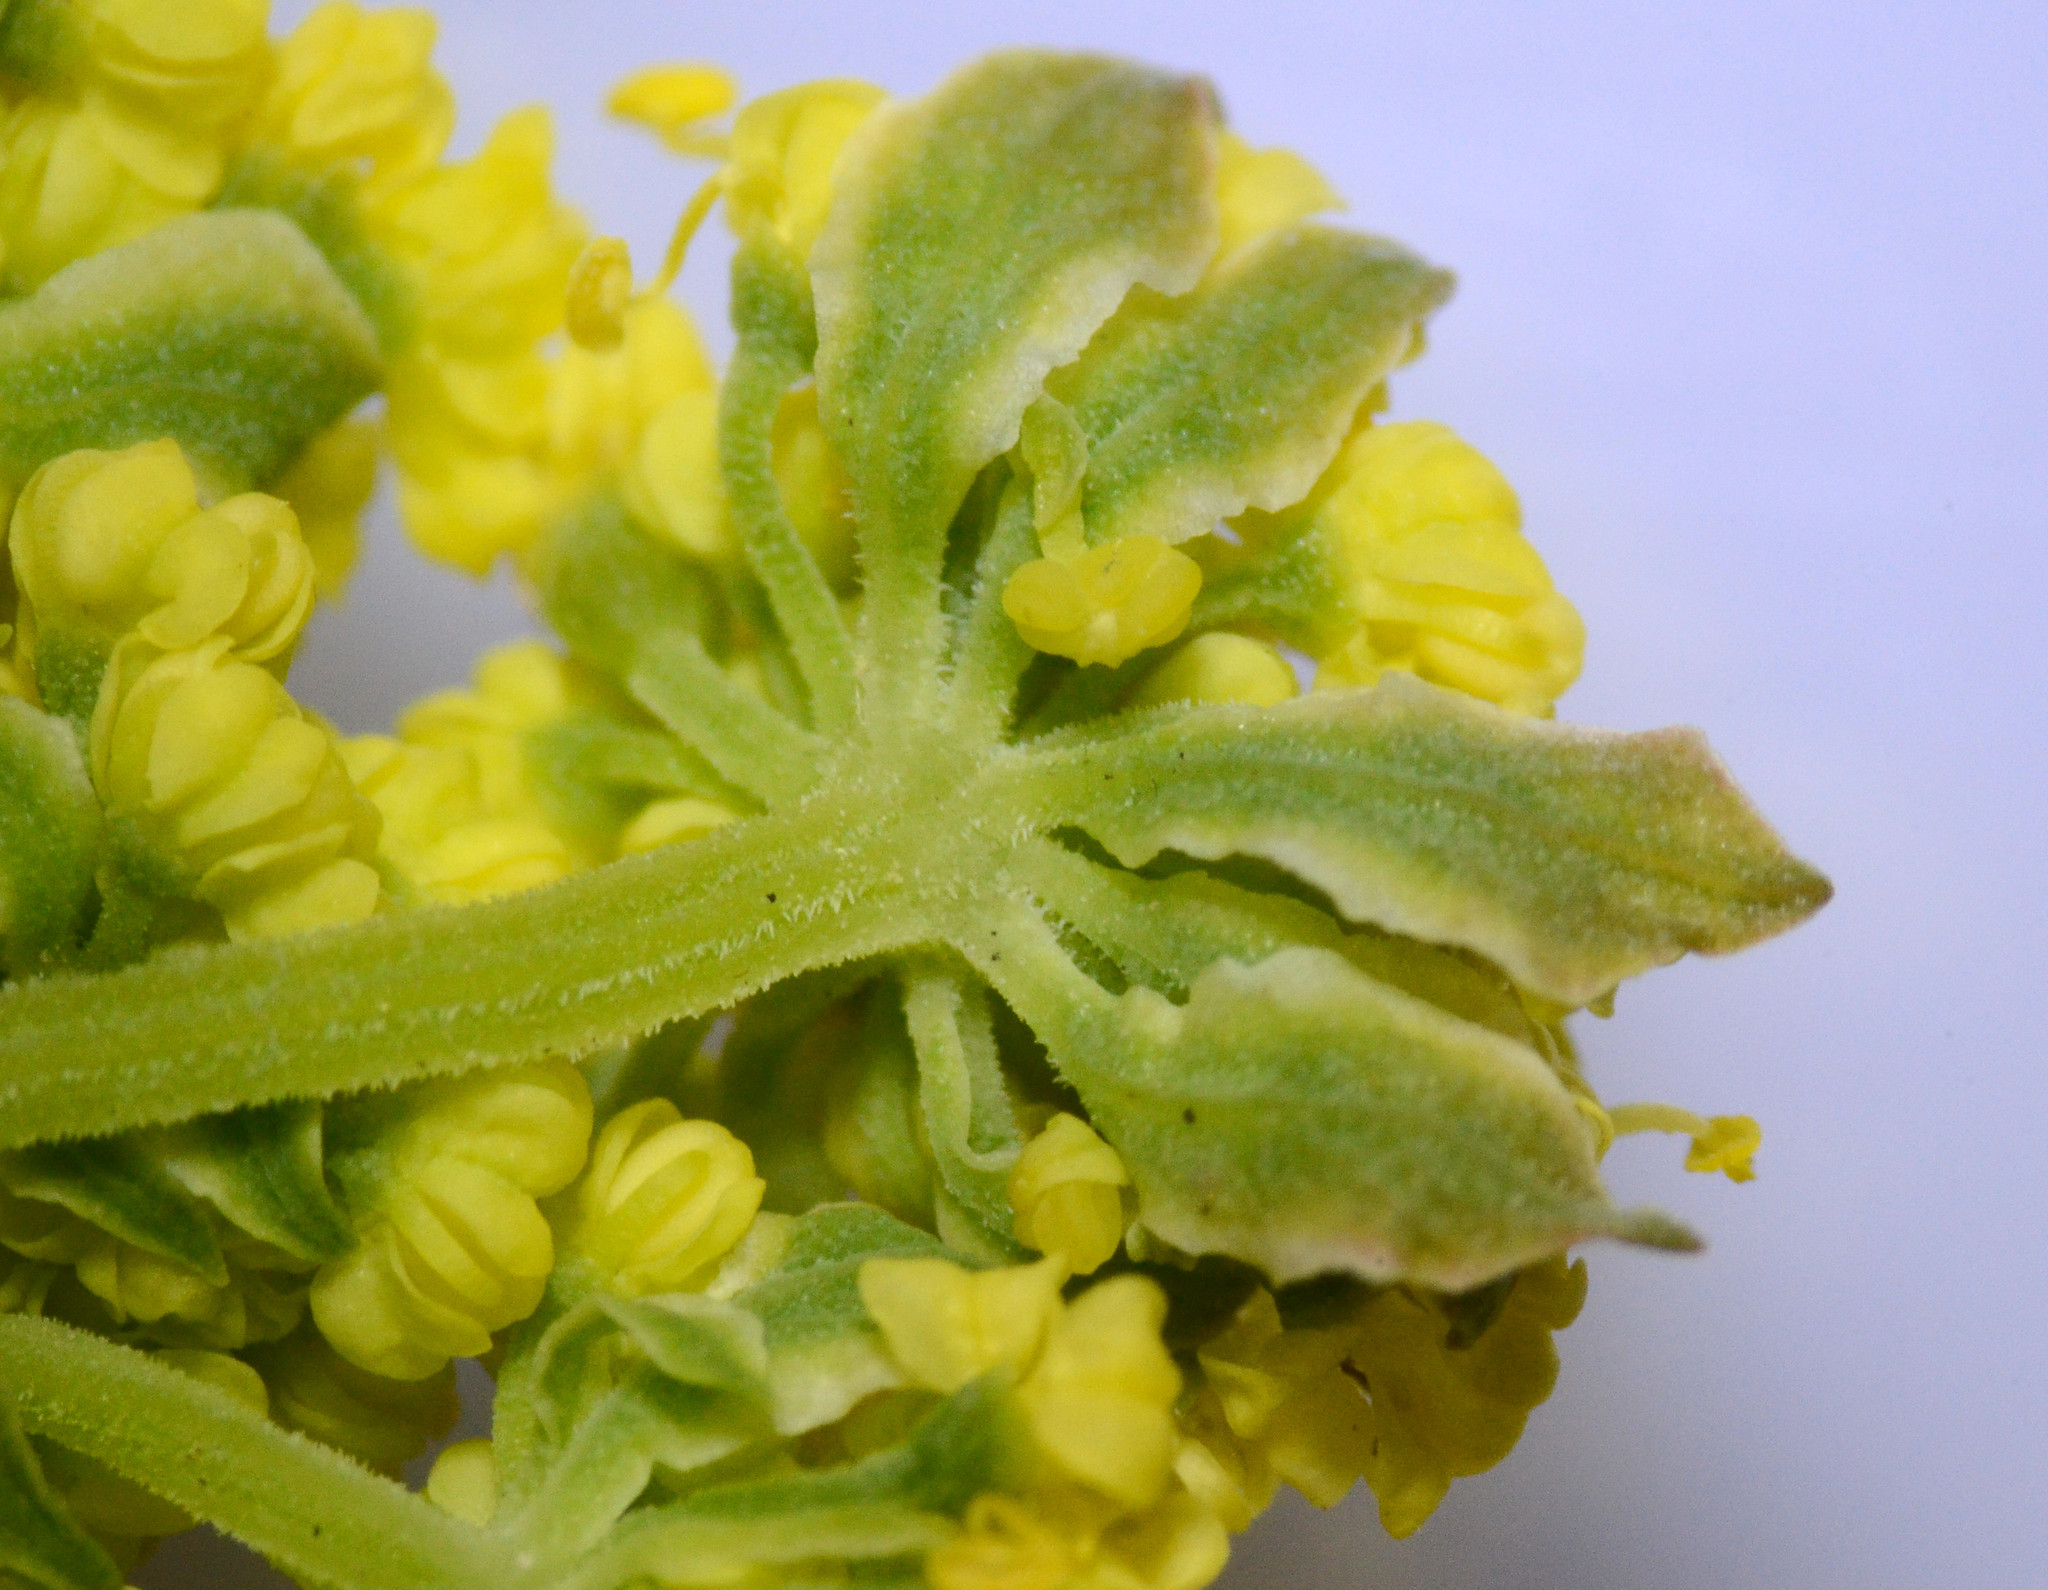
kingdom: Plantae
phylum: Tracheophyta
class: Magnoliopsida
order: Apiales
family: Apiaceae
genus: Lomatium
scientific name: Lomatium caruifolium
